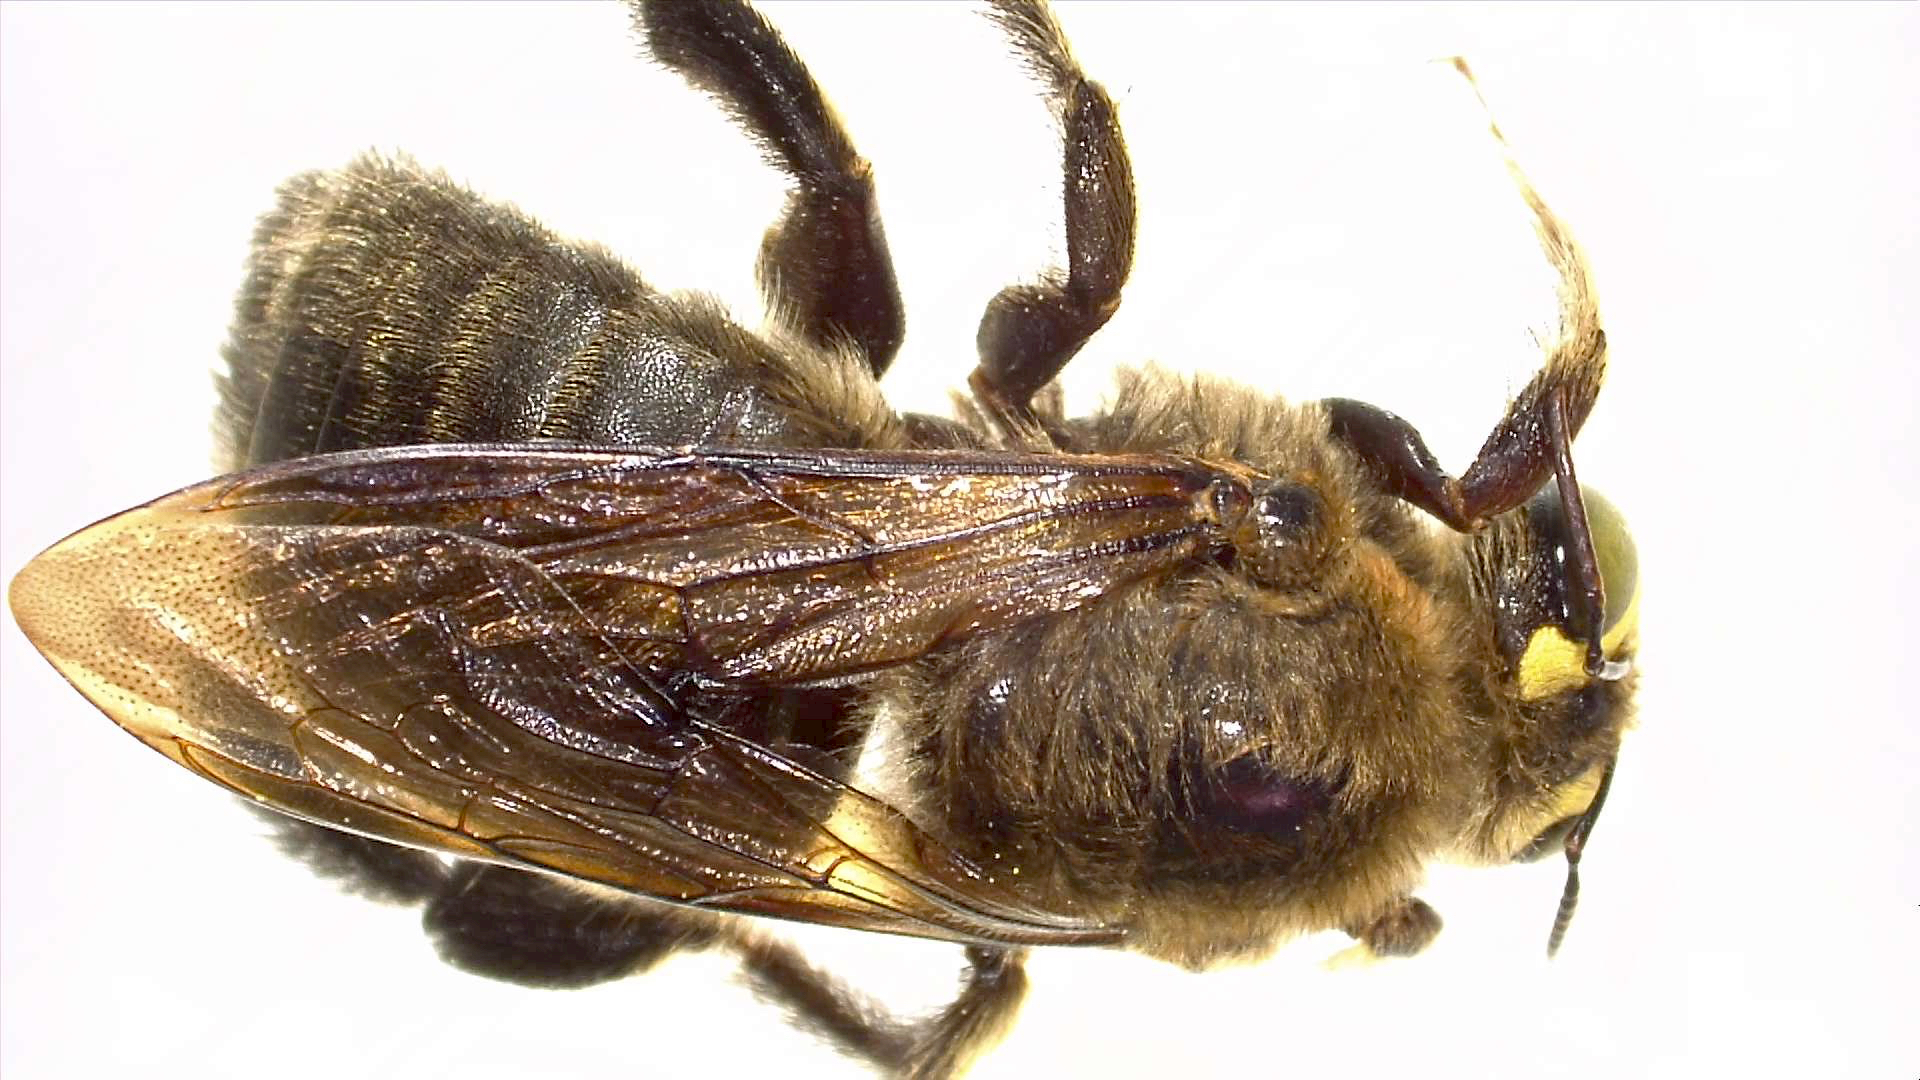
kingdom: Animalia
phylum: Arthropoda
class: Insecta
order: Hymenoptera
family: Apidae
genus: Xylocopa
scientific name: Xylocopa micheneri
